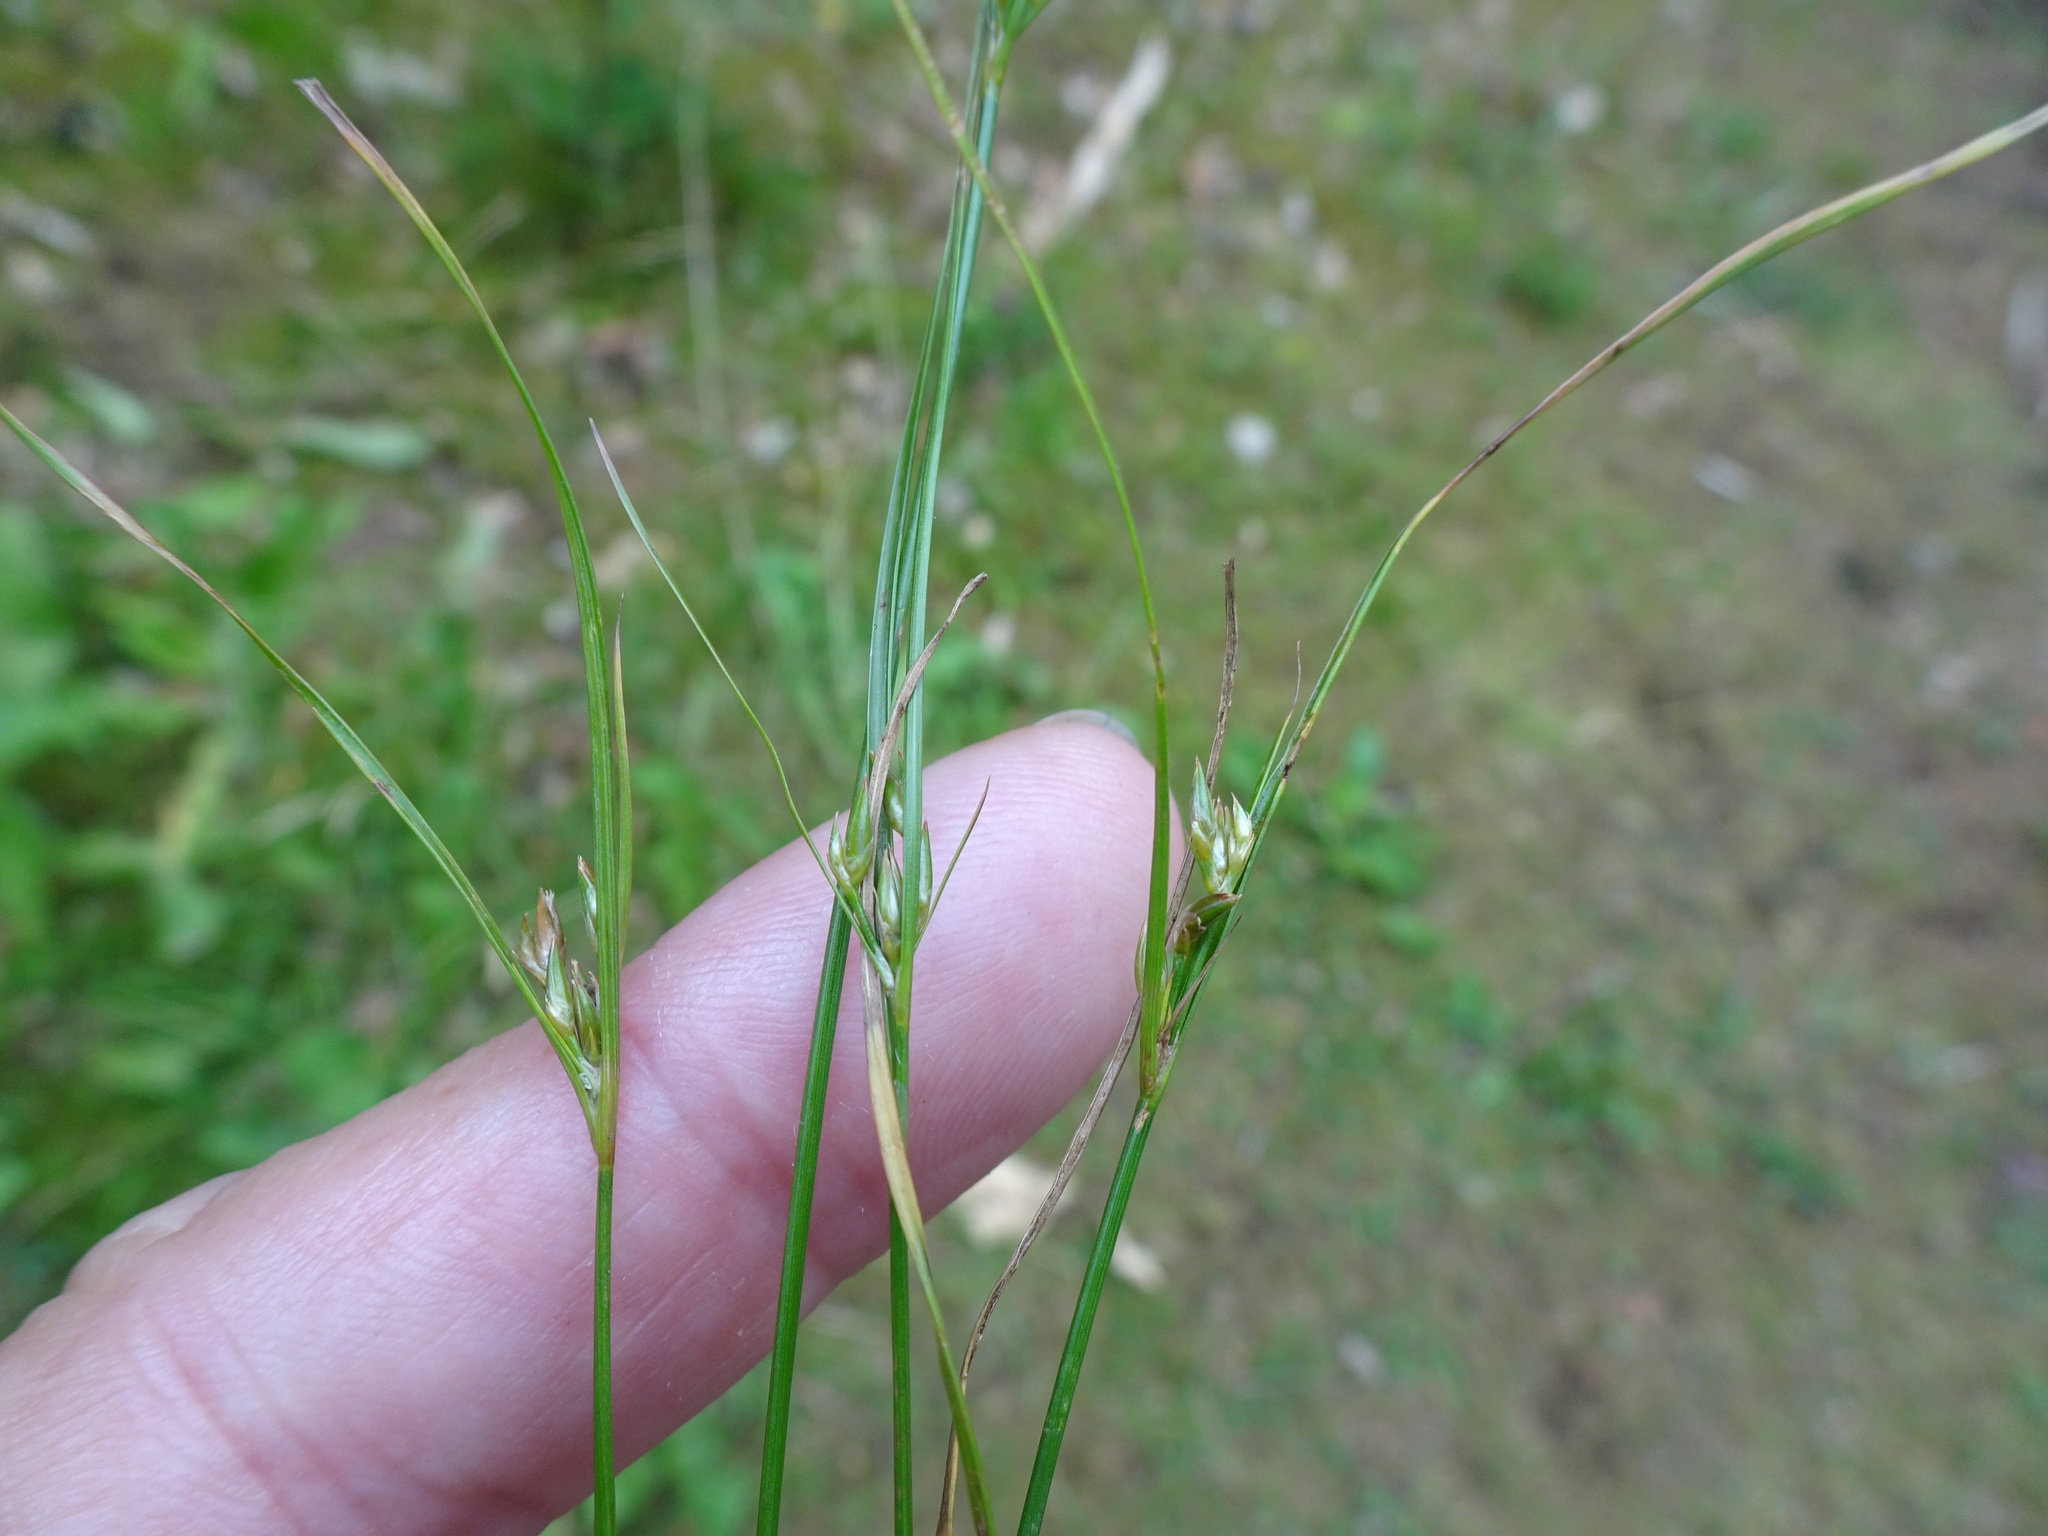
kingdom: Plantae
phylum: Tracheophyta
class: Liliopsida
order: Poales
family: Juncaceae
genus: Juncus
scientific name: Juncus tenuis
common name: Slender rush
